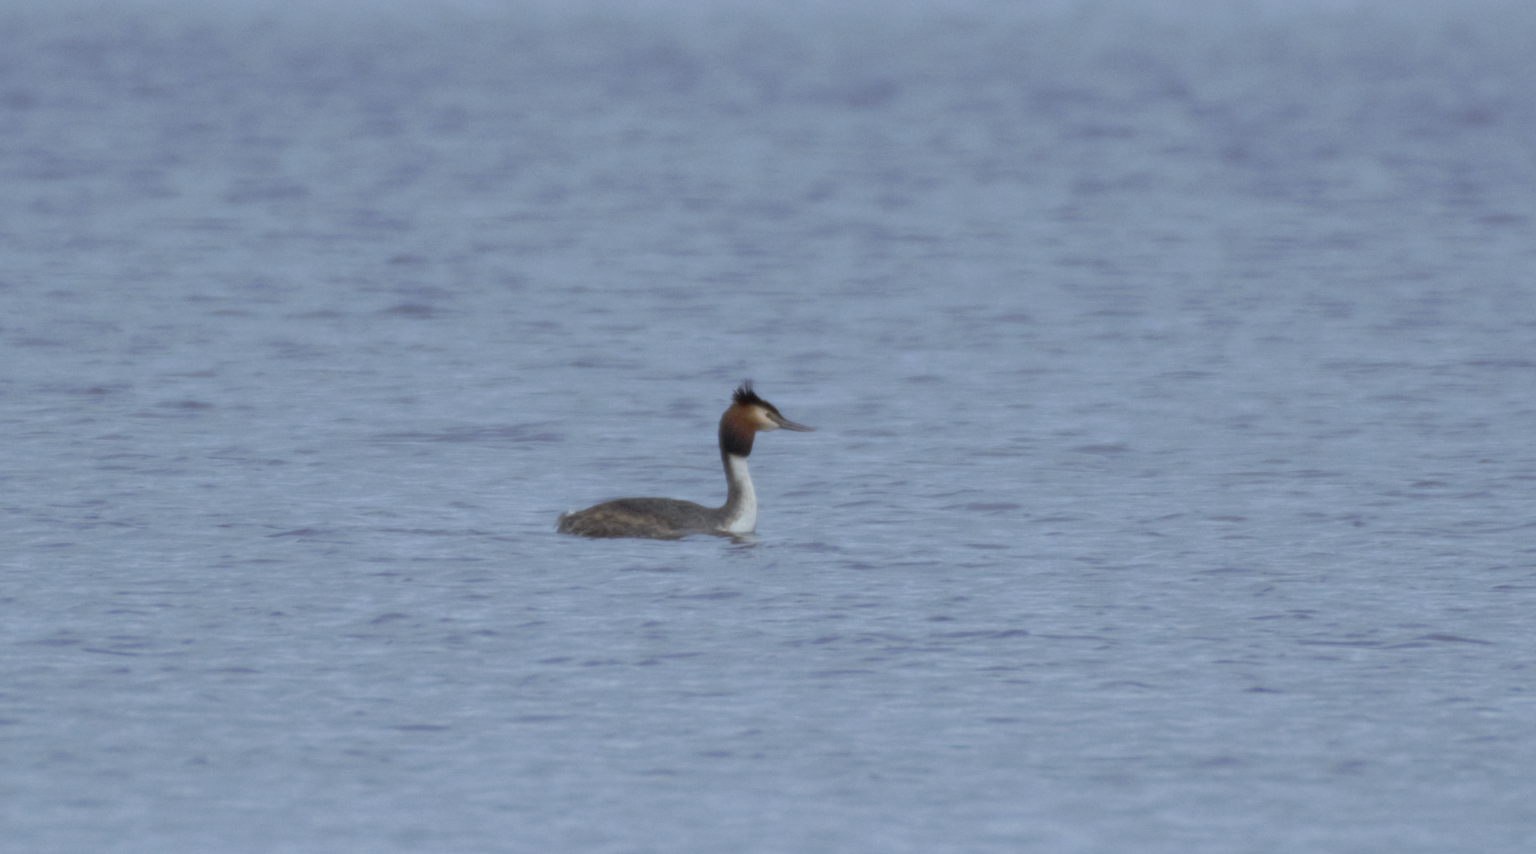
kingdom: Animalia
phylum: Chordata
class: Aves
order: Podicipediformes
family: Podicipedidae
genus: Podiceps
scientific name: Podiceps cristatus
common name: Great crested grebe
